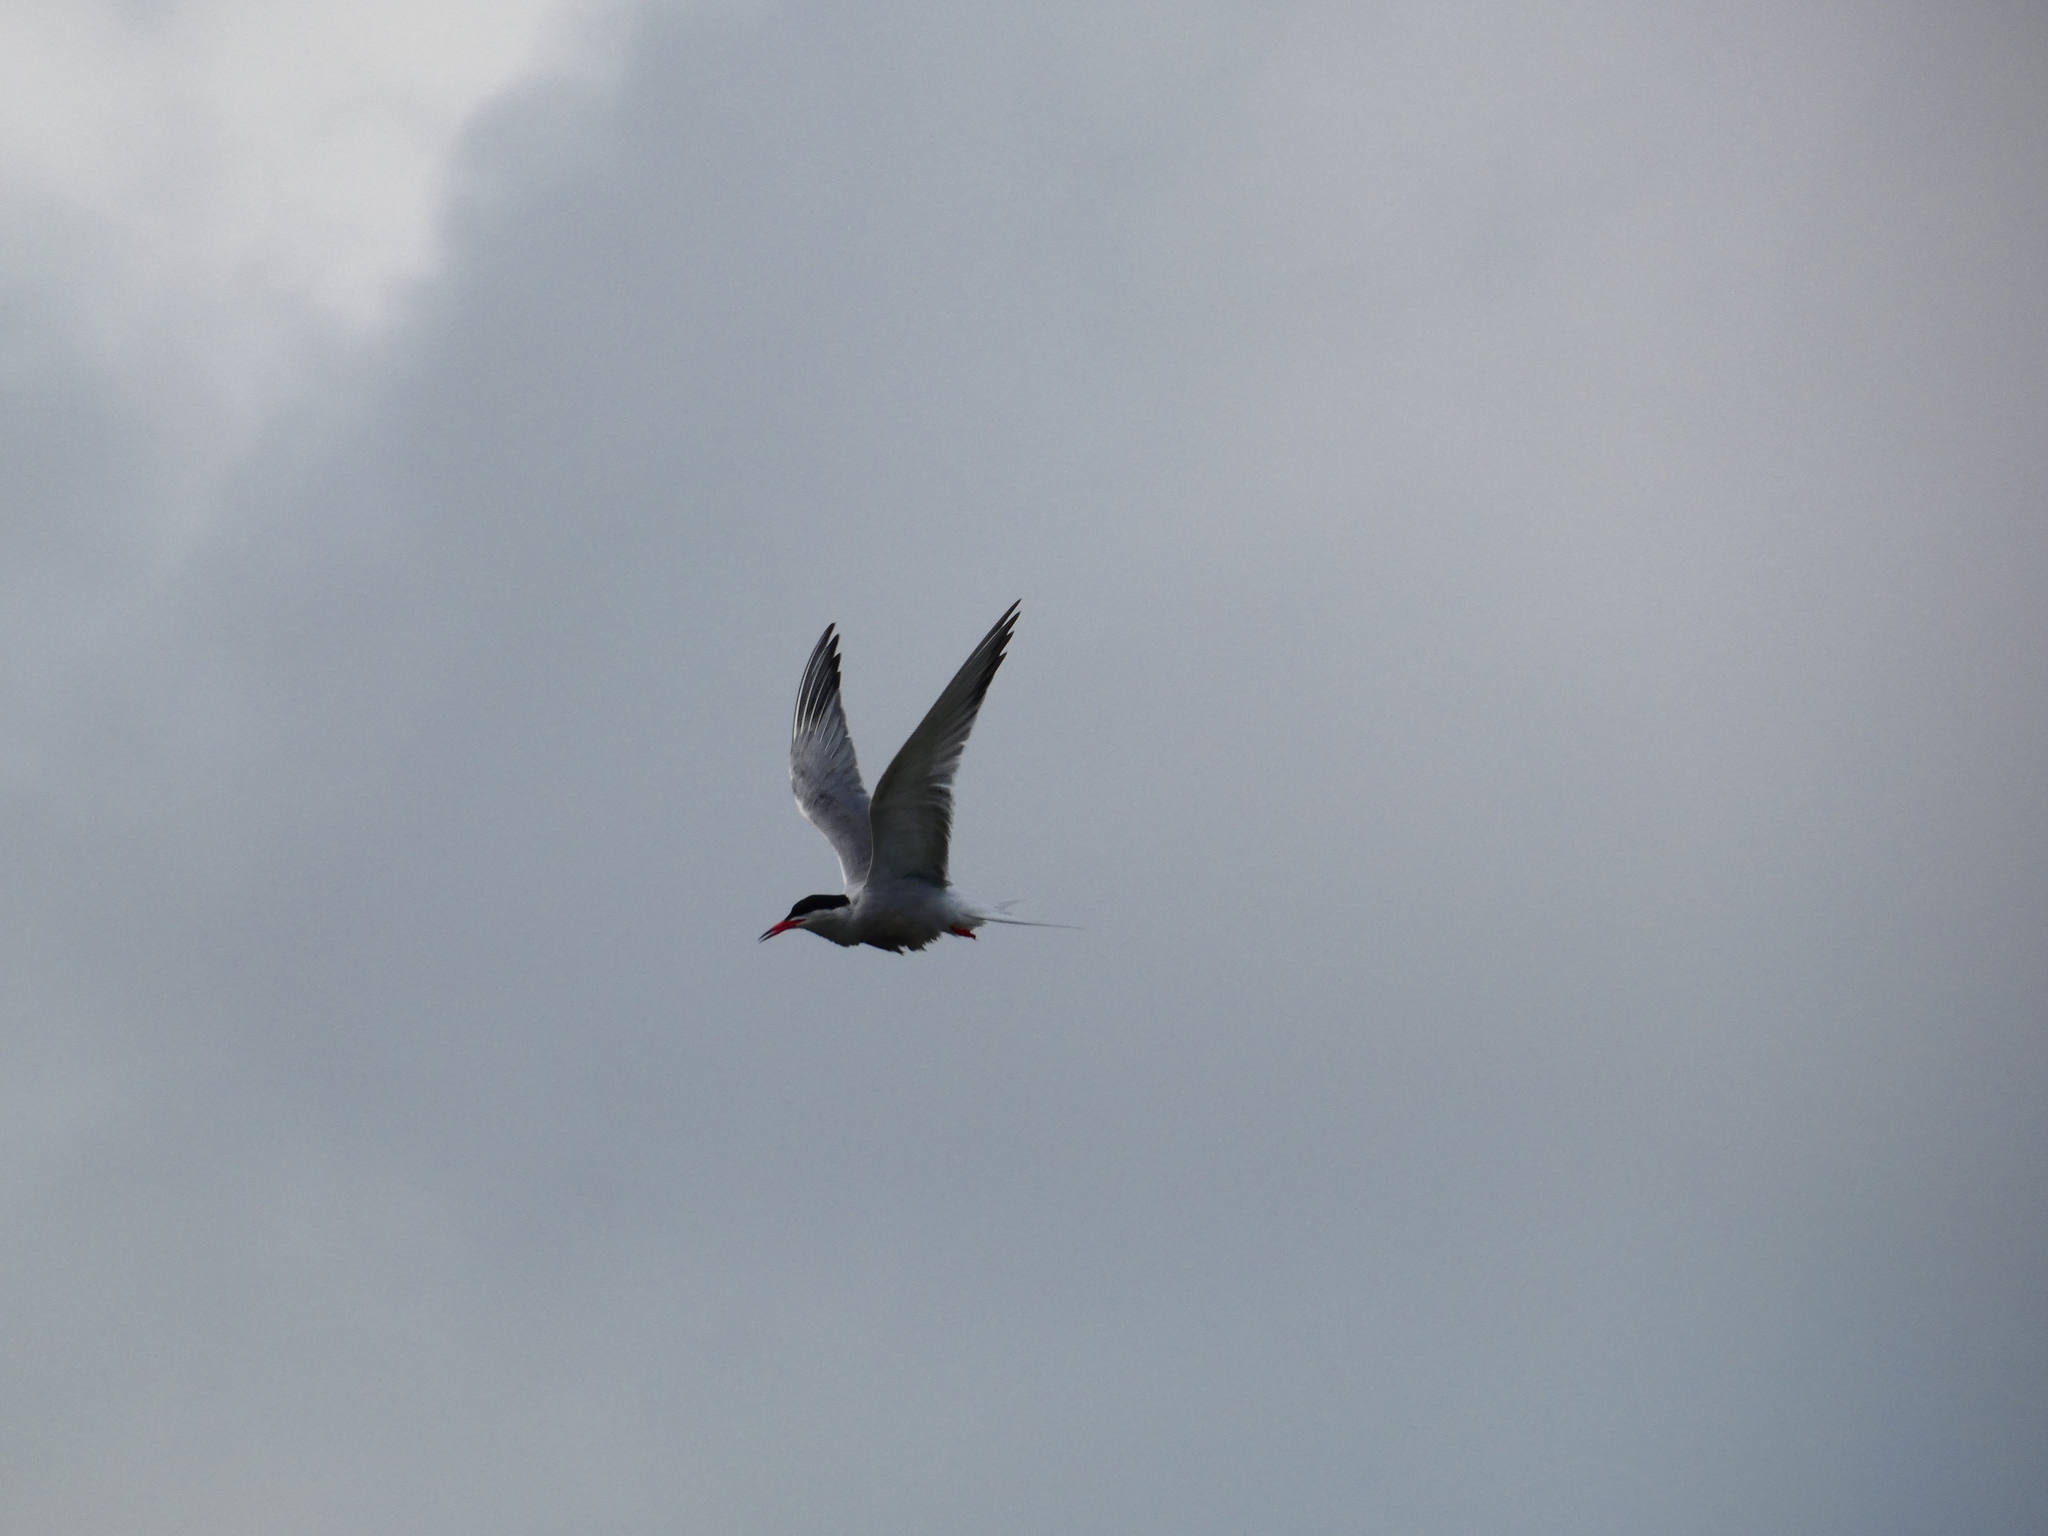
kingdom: Animalia
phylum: Chordata
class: Aves
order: Charadriiformes
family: Laridae
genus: Sterna
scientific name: Sterna hirundo
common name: Common tern
